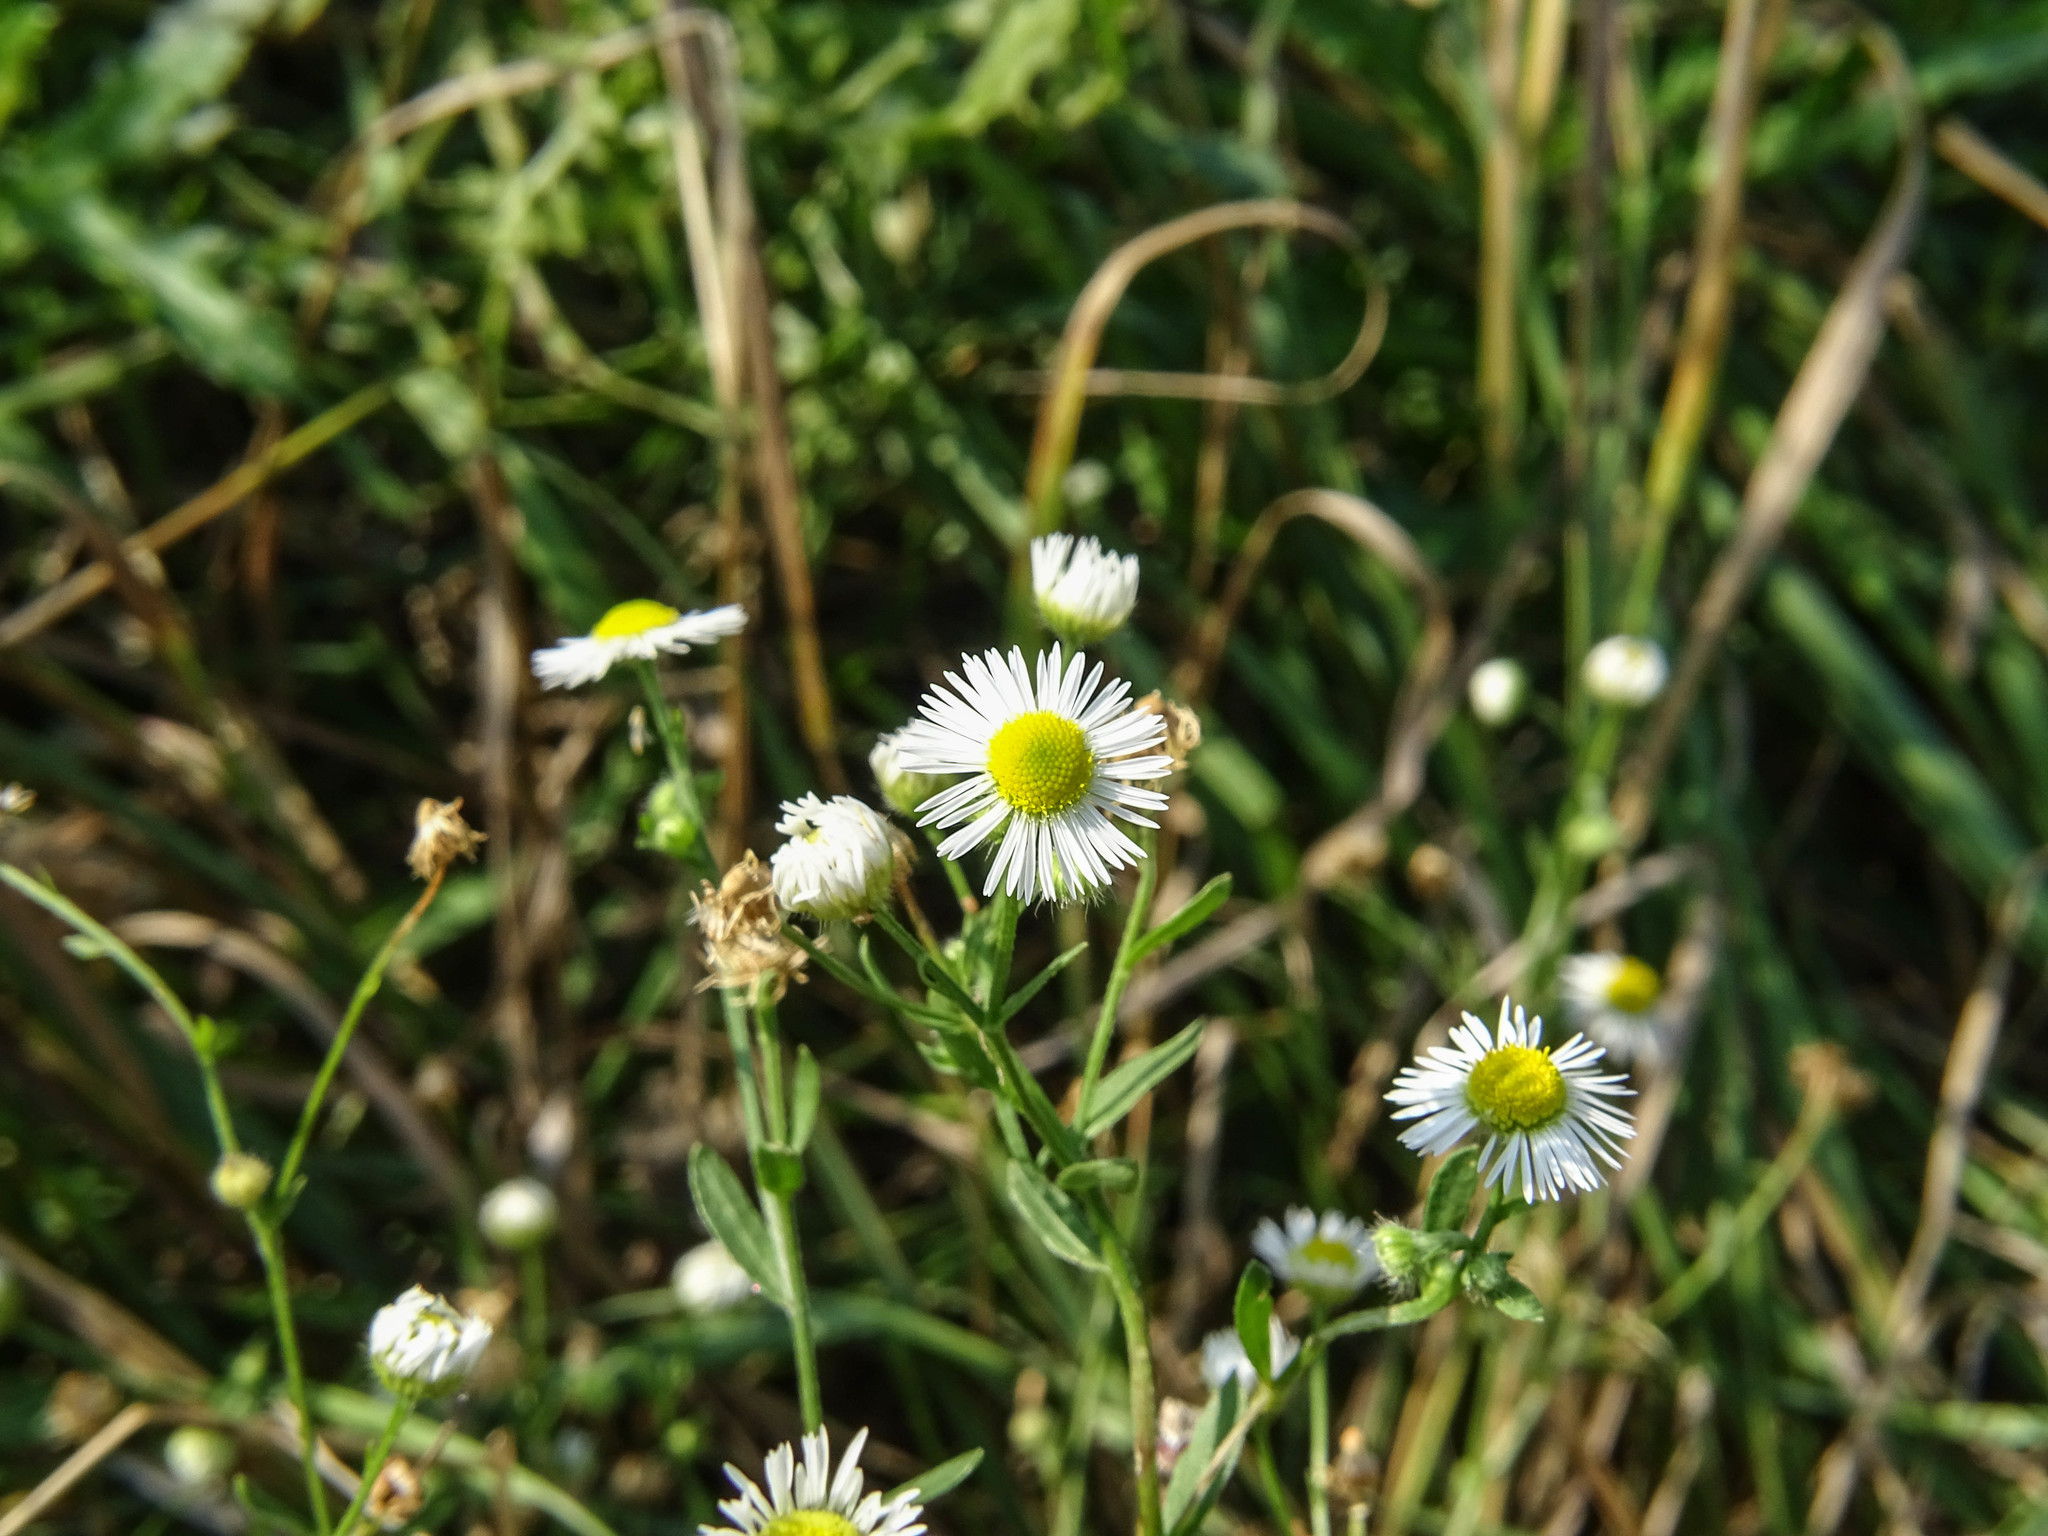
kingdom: Plantae
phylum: Tracheophyta
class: Magnoliopsida
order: Asterales
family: Asteraceae
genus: Erigeron
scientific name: Erigeron annuus
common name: Tall fleabane
